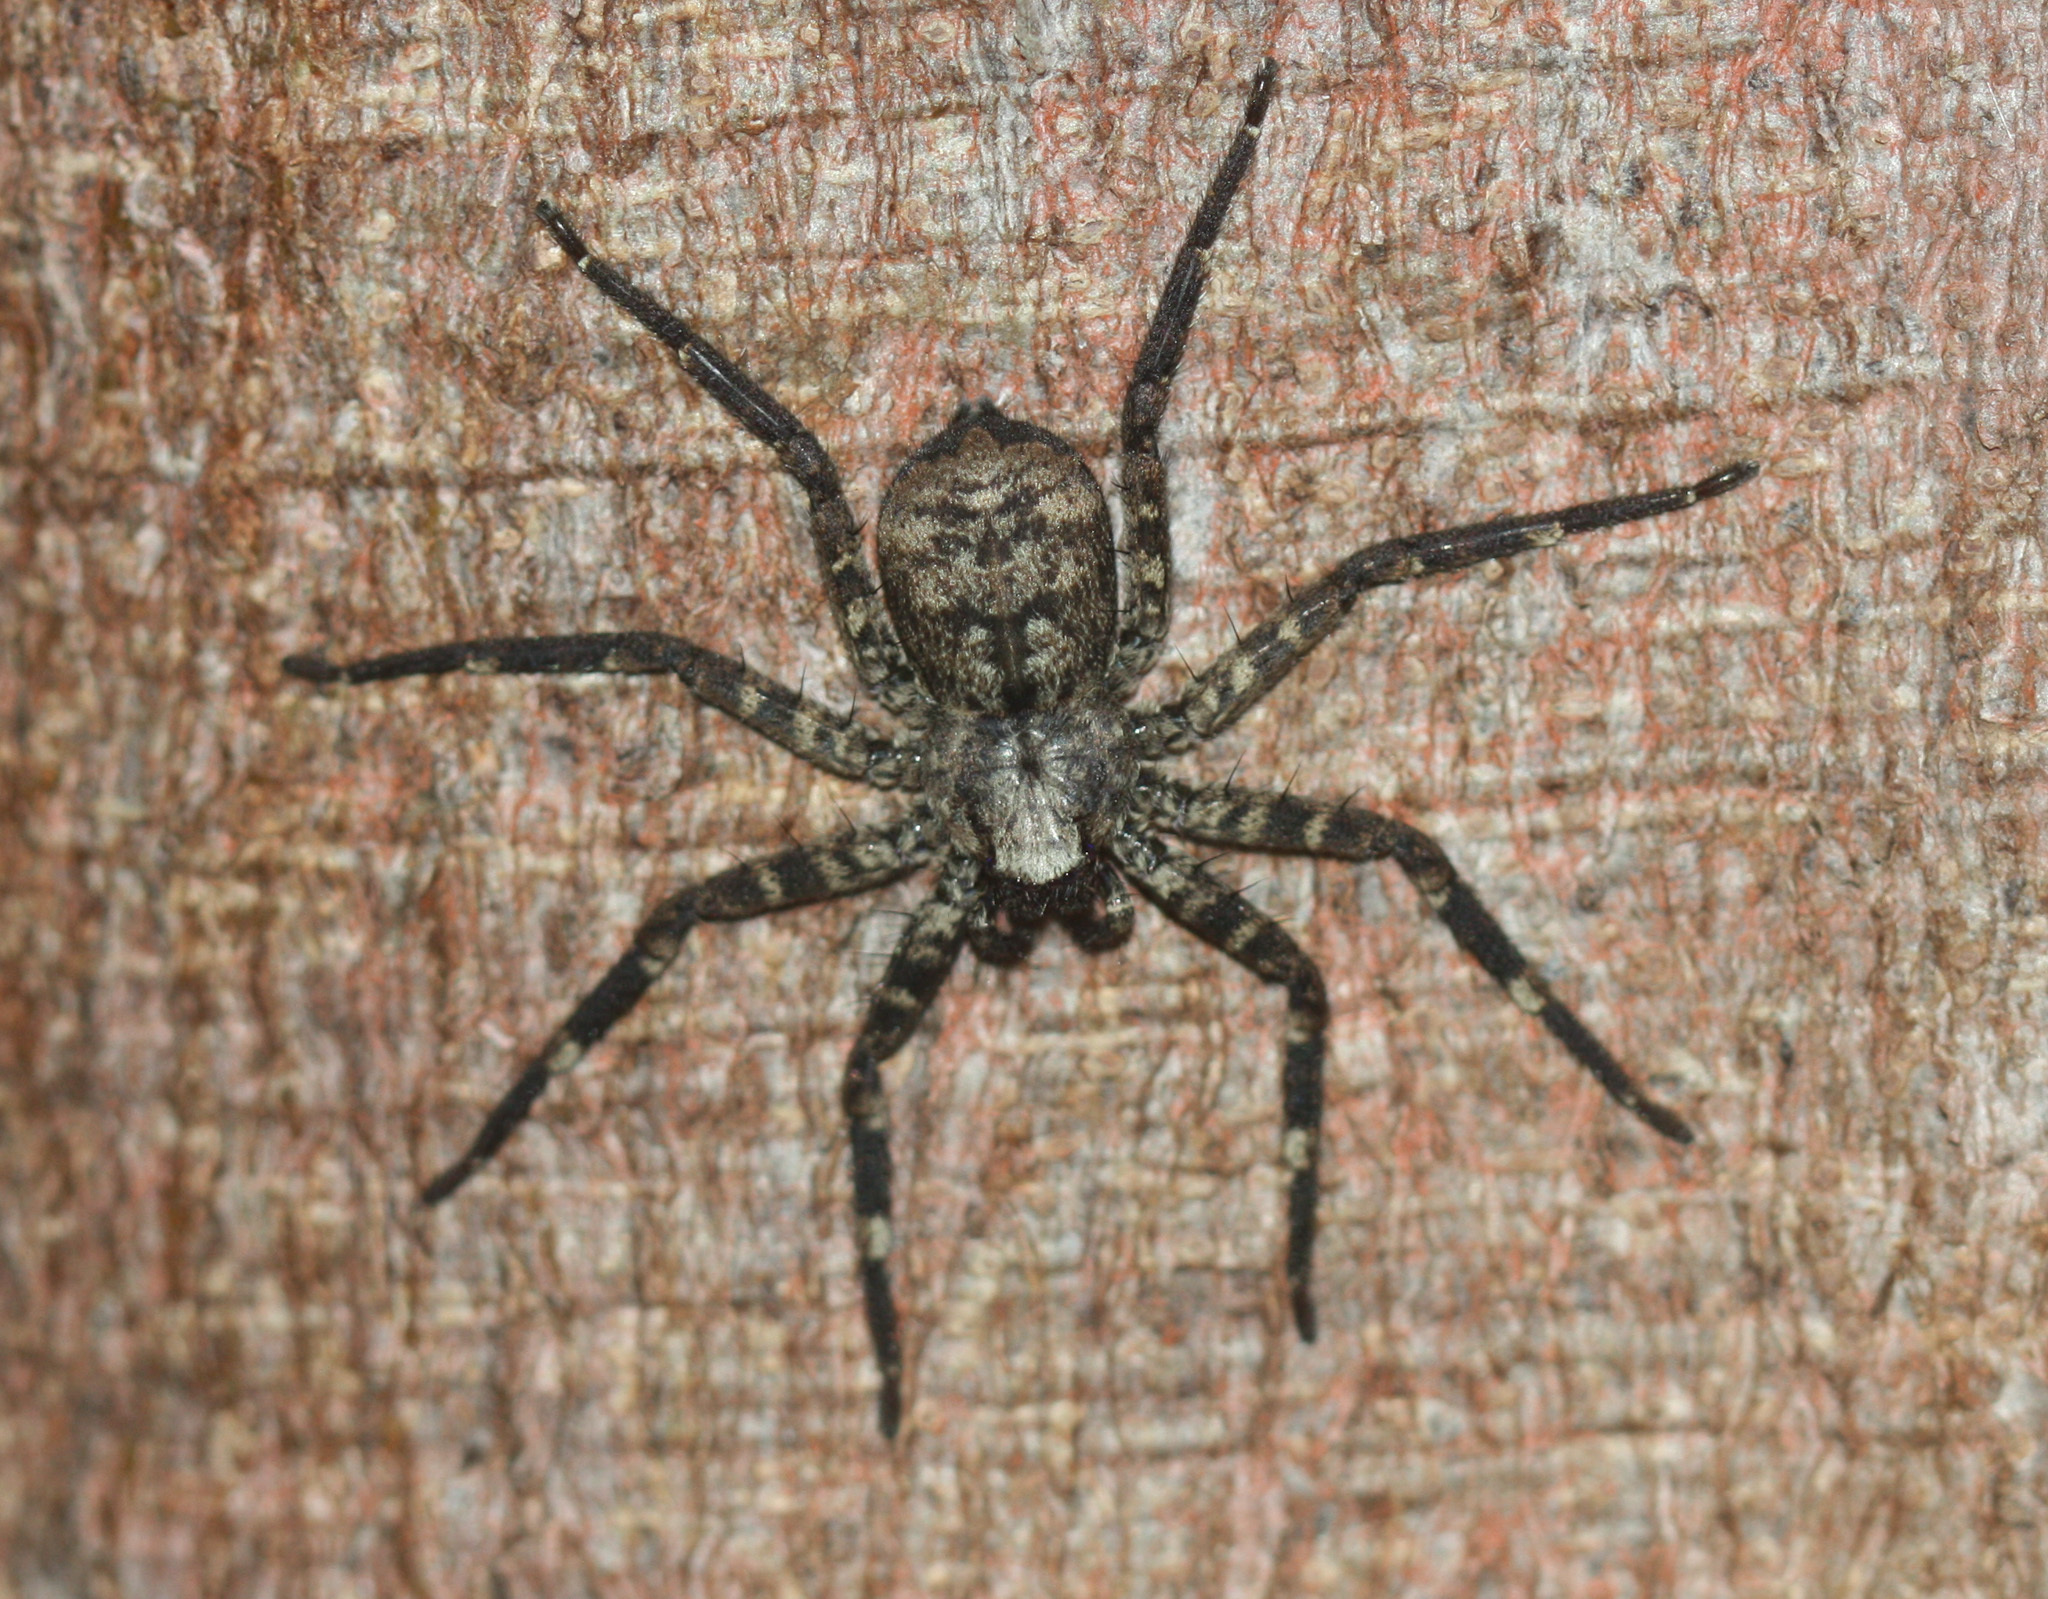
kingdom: Animalia
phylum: Arthropoda
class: Arachnida
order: Araneae
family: Selenopidae
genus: Selenops
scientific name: Selenops mexicanus
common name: Wall crab spiders
